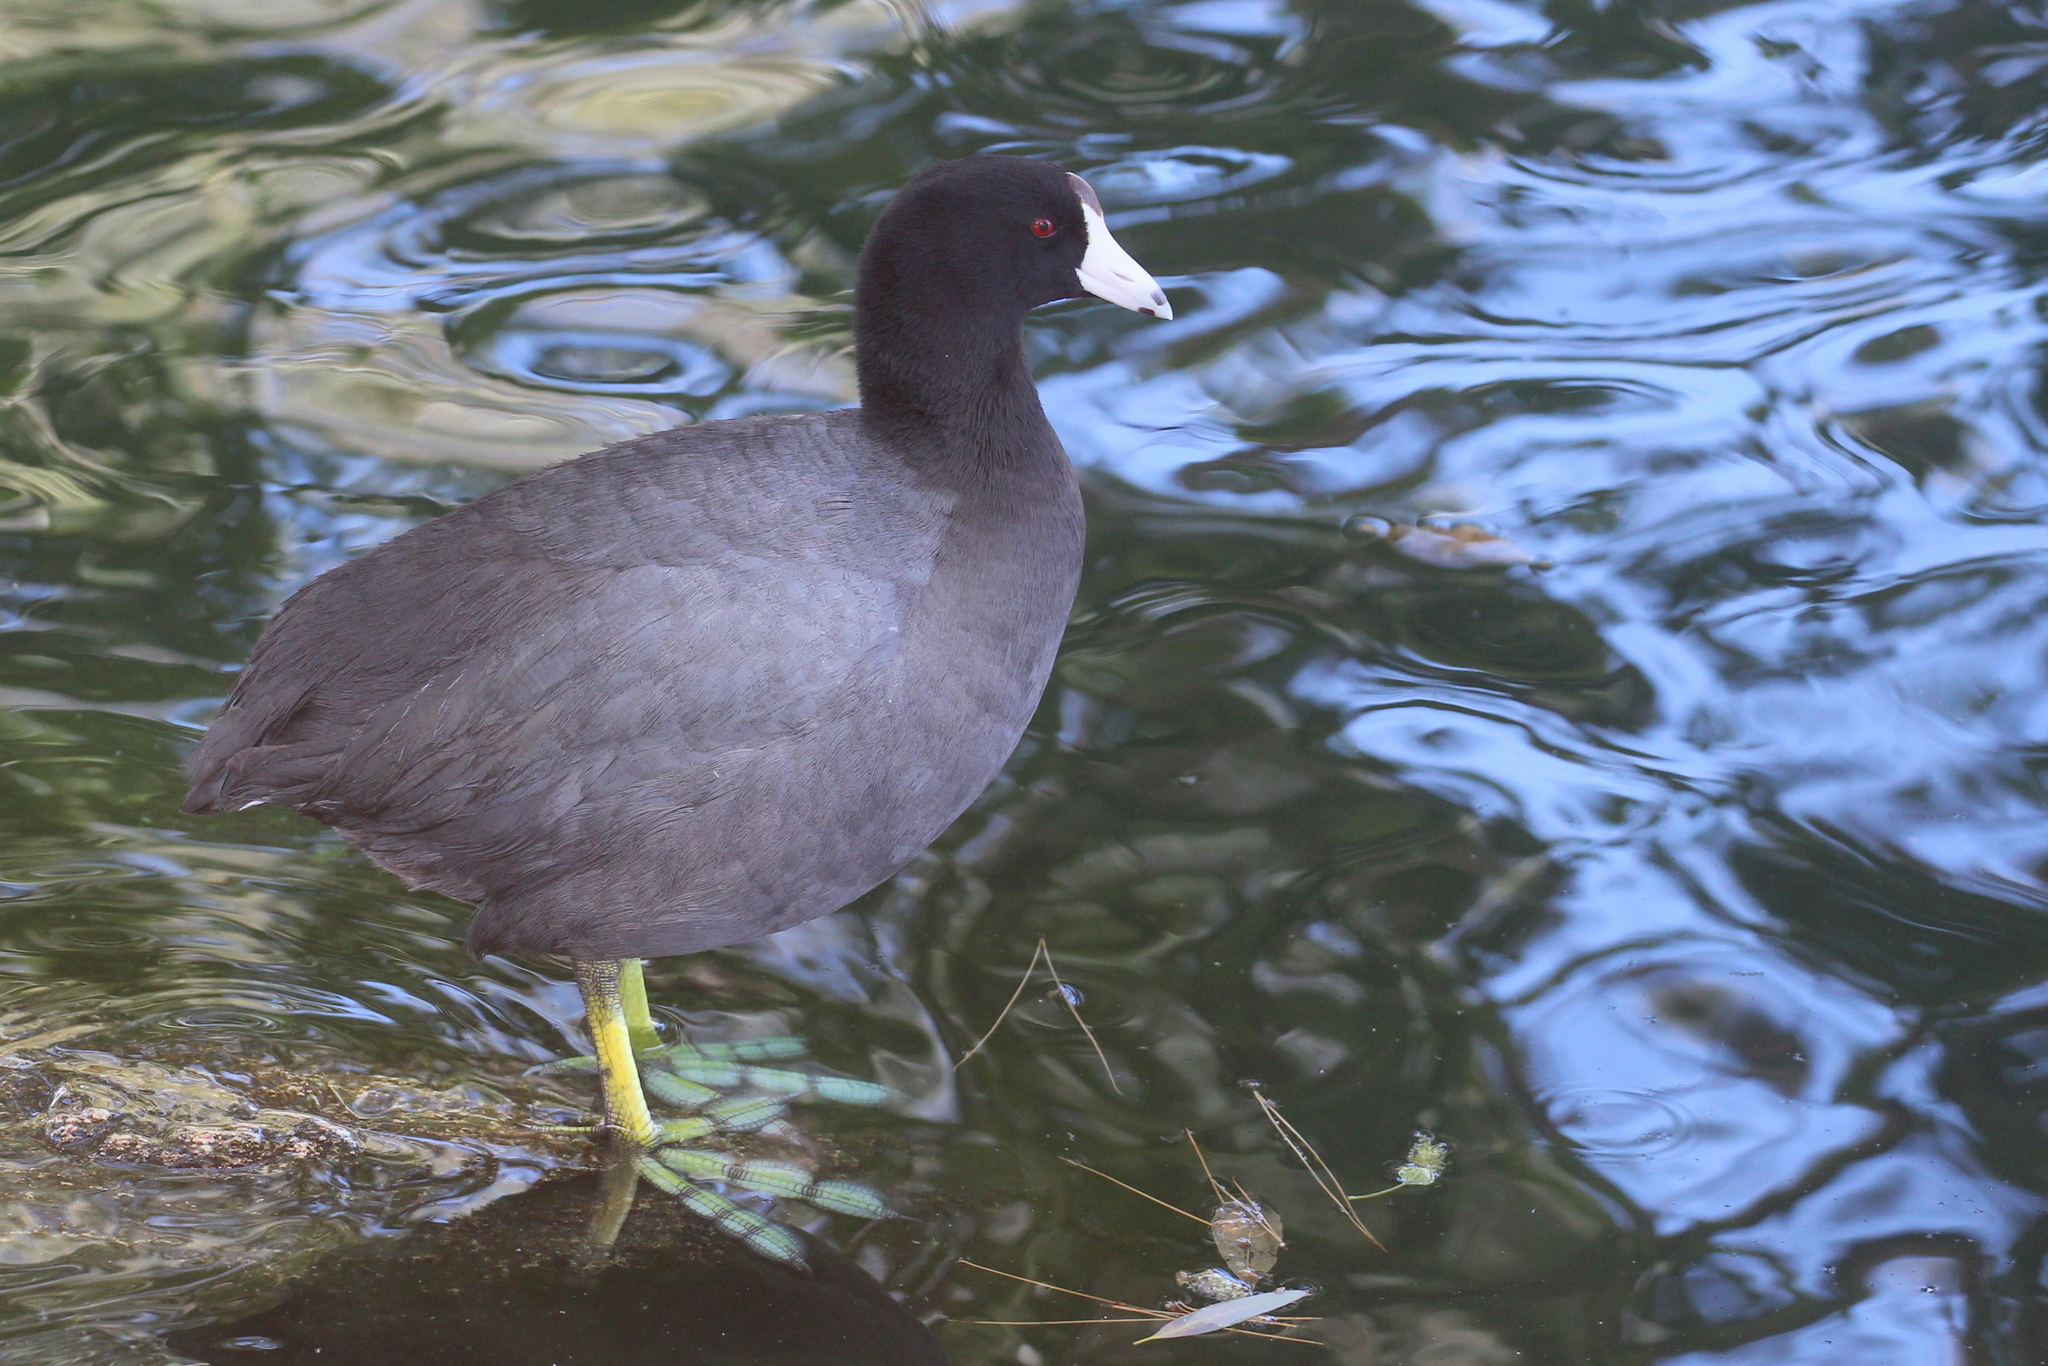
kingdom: Animalia
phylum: Chordata
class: Aves
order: Gruiformes
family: Rallidae
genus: Fulica
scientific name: Fulica americana
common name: American coot
